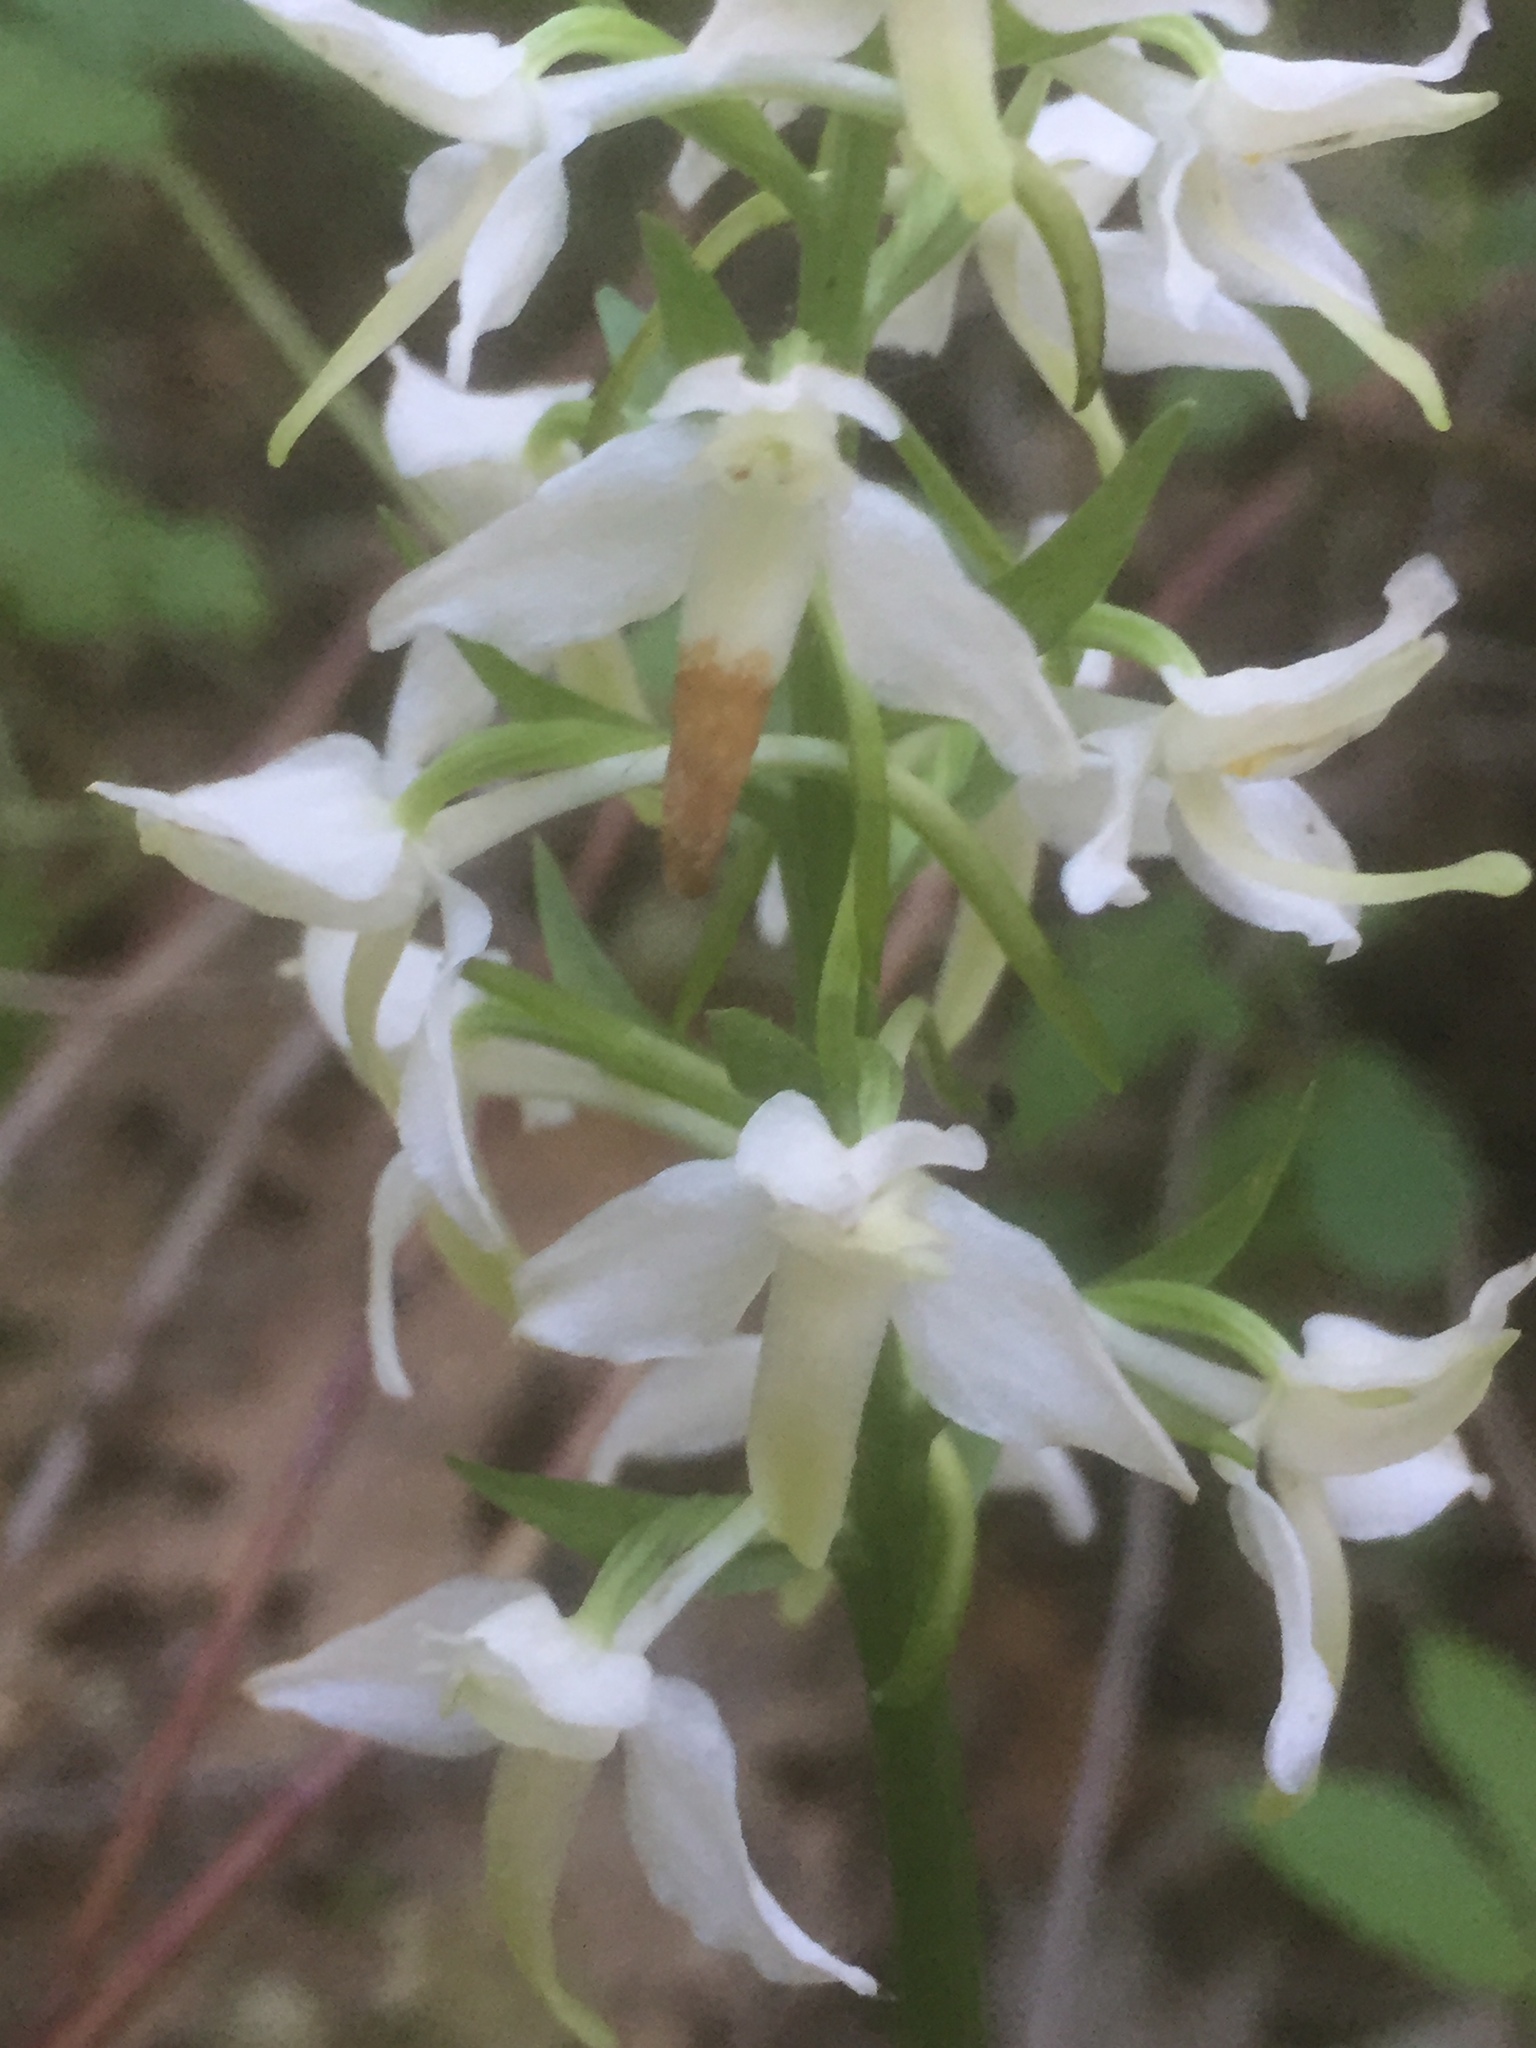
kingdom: Plantae
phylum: Tracheophyta
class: Liliopsida
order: Asparagales
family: Orchidaceae
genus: Platanthera
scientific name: Platanthera bifolia
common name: Lesser butterfly-orchid
